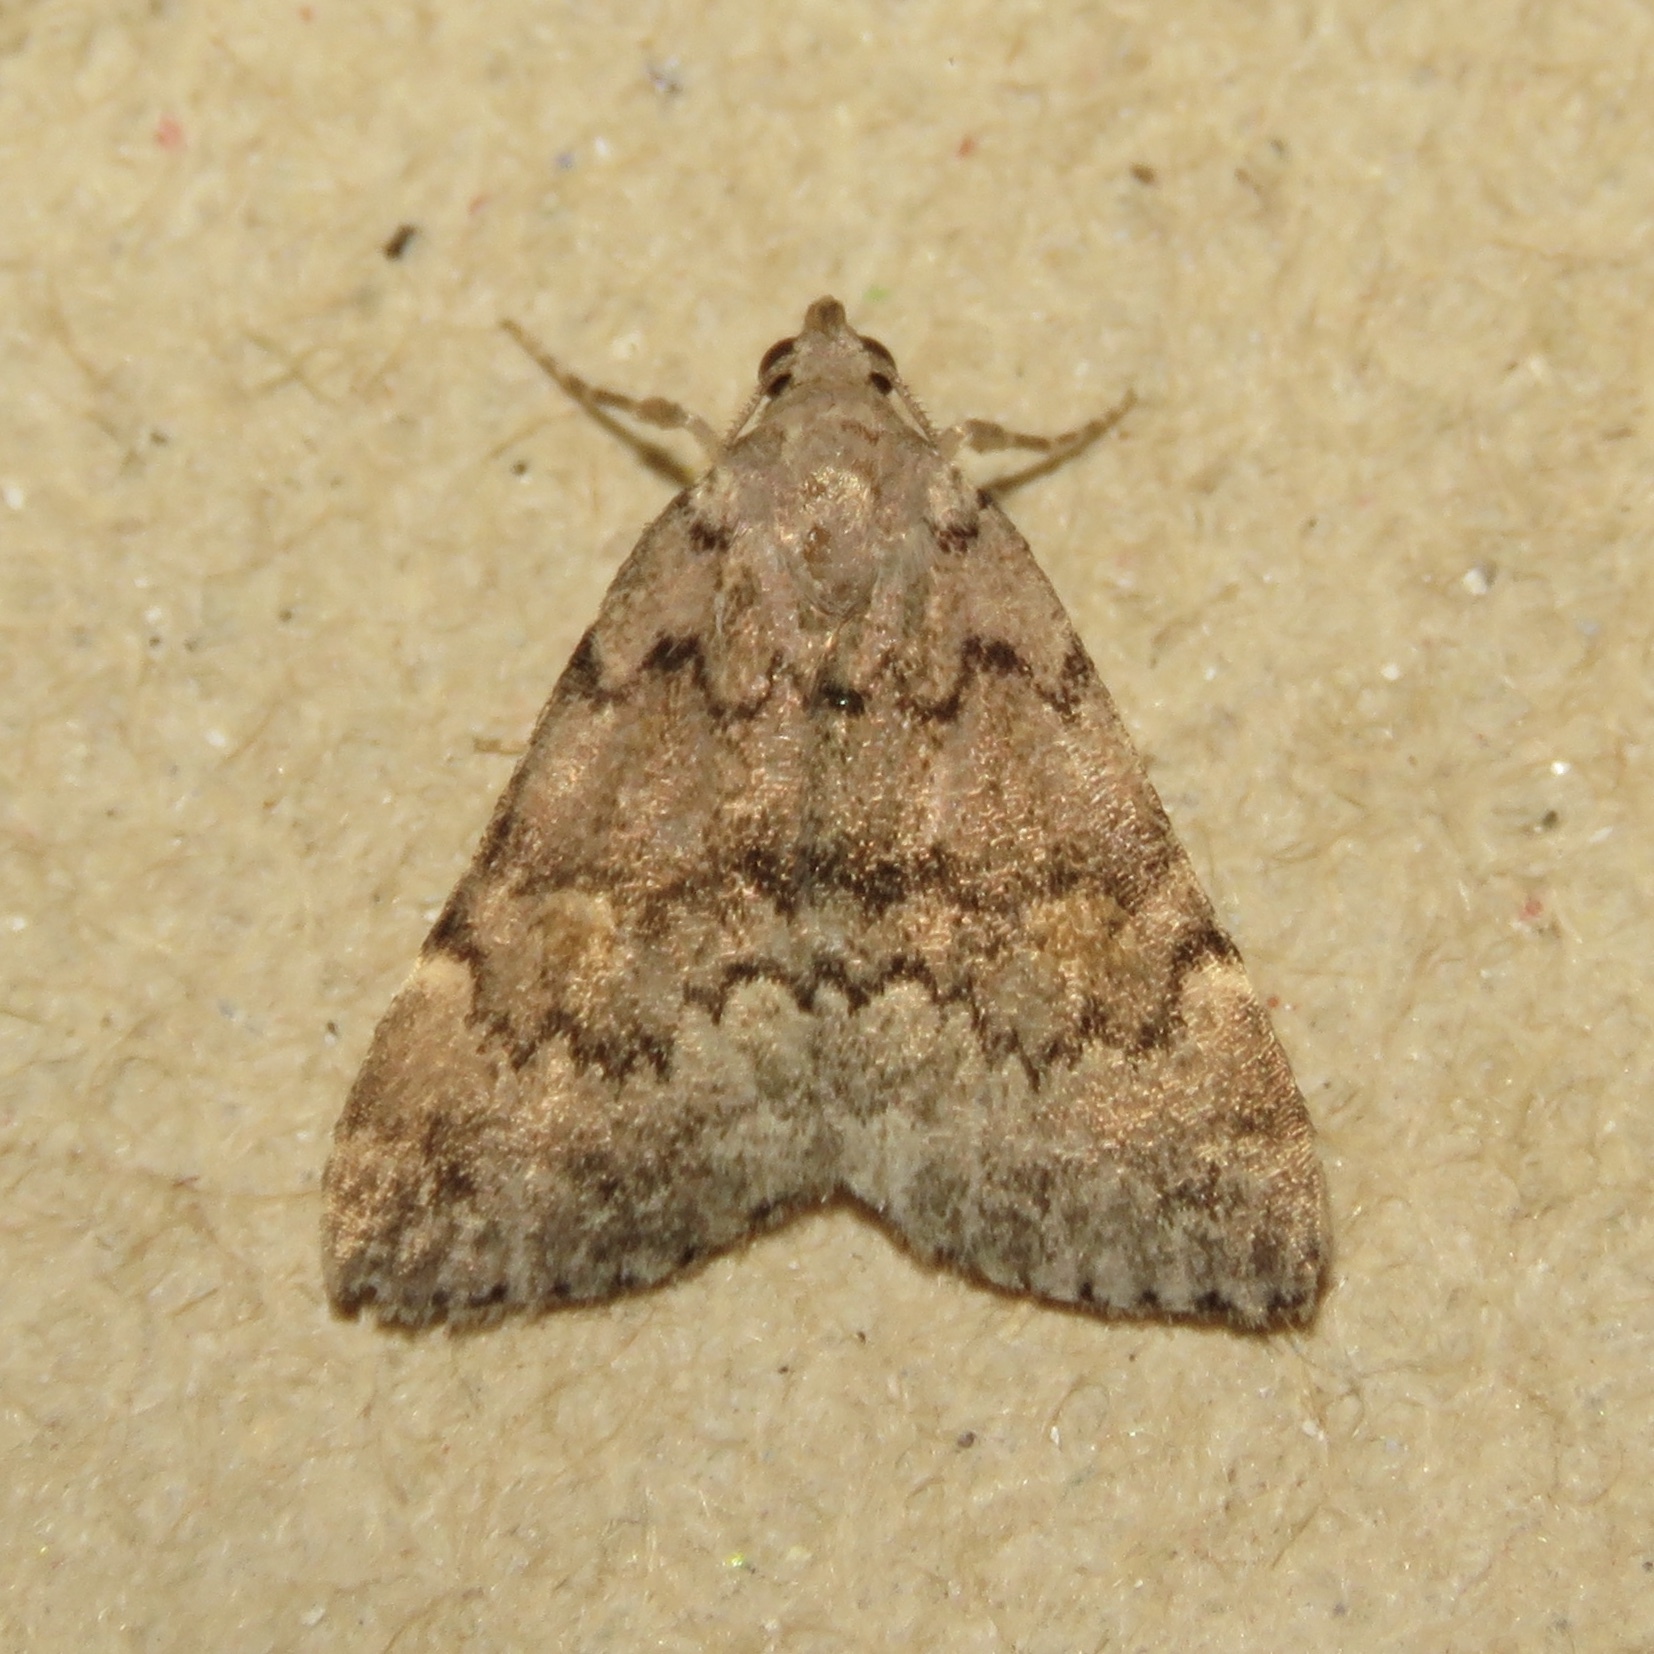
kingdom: Animalia
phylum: Arthropoda
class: Insecta
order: Lepidoptera
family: Erebidae
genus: Idia
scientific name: Idia aemula
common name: Common idia moth
